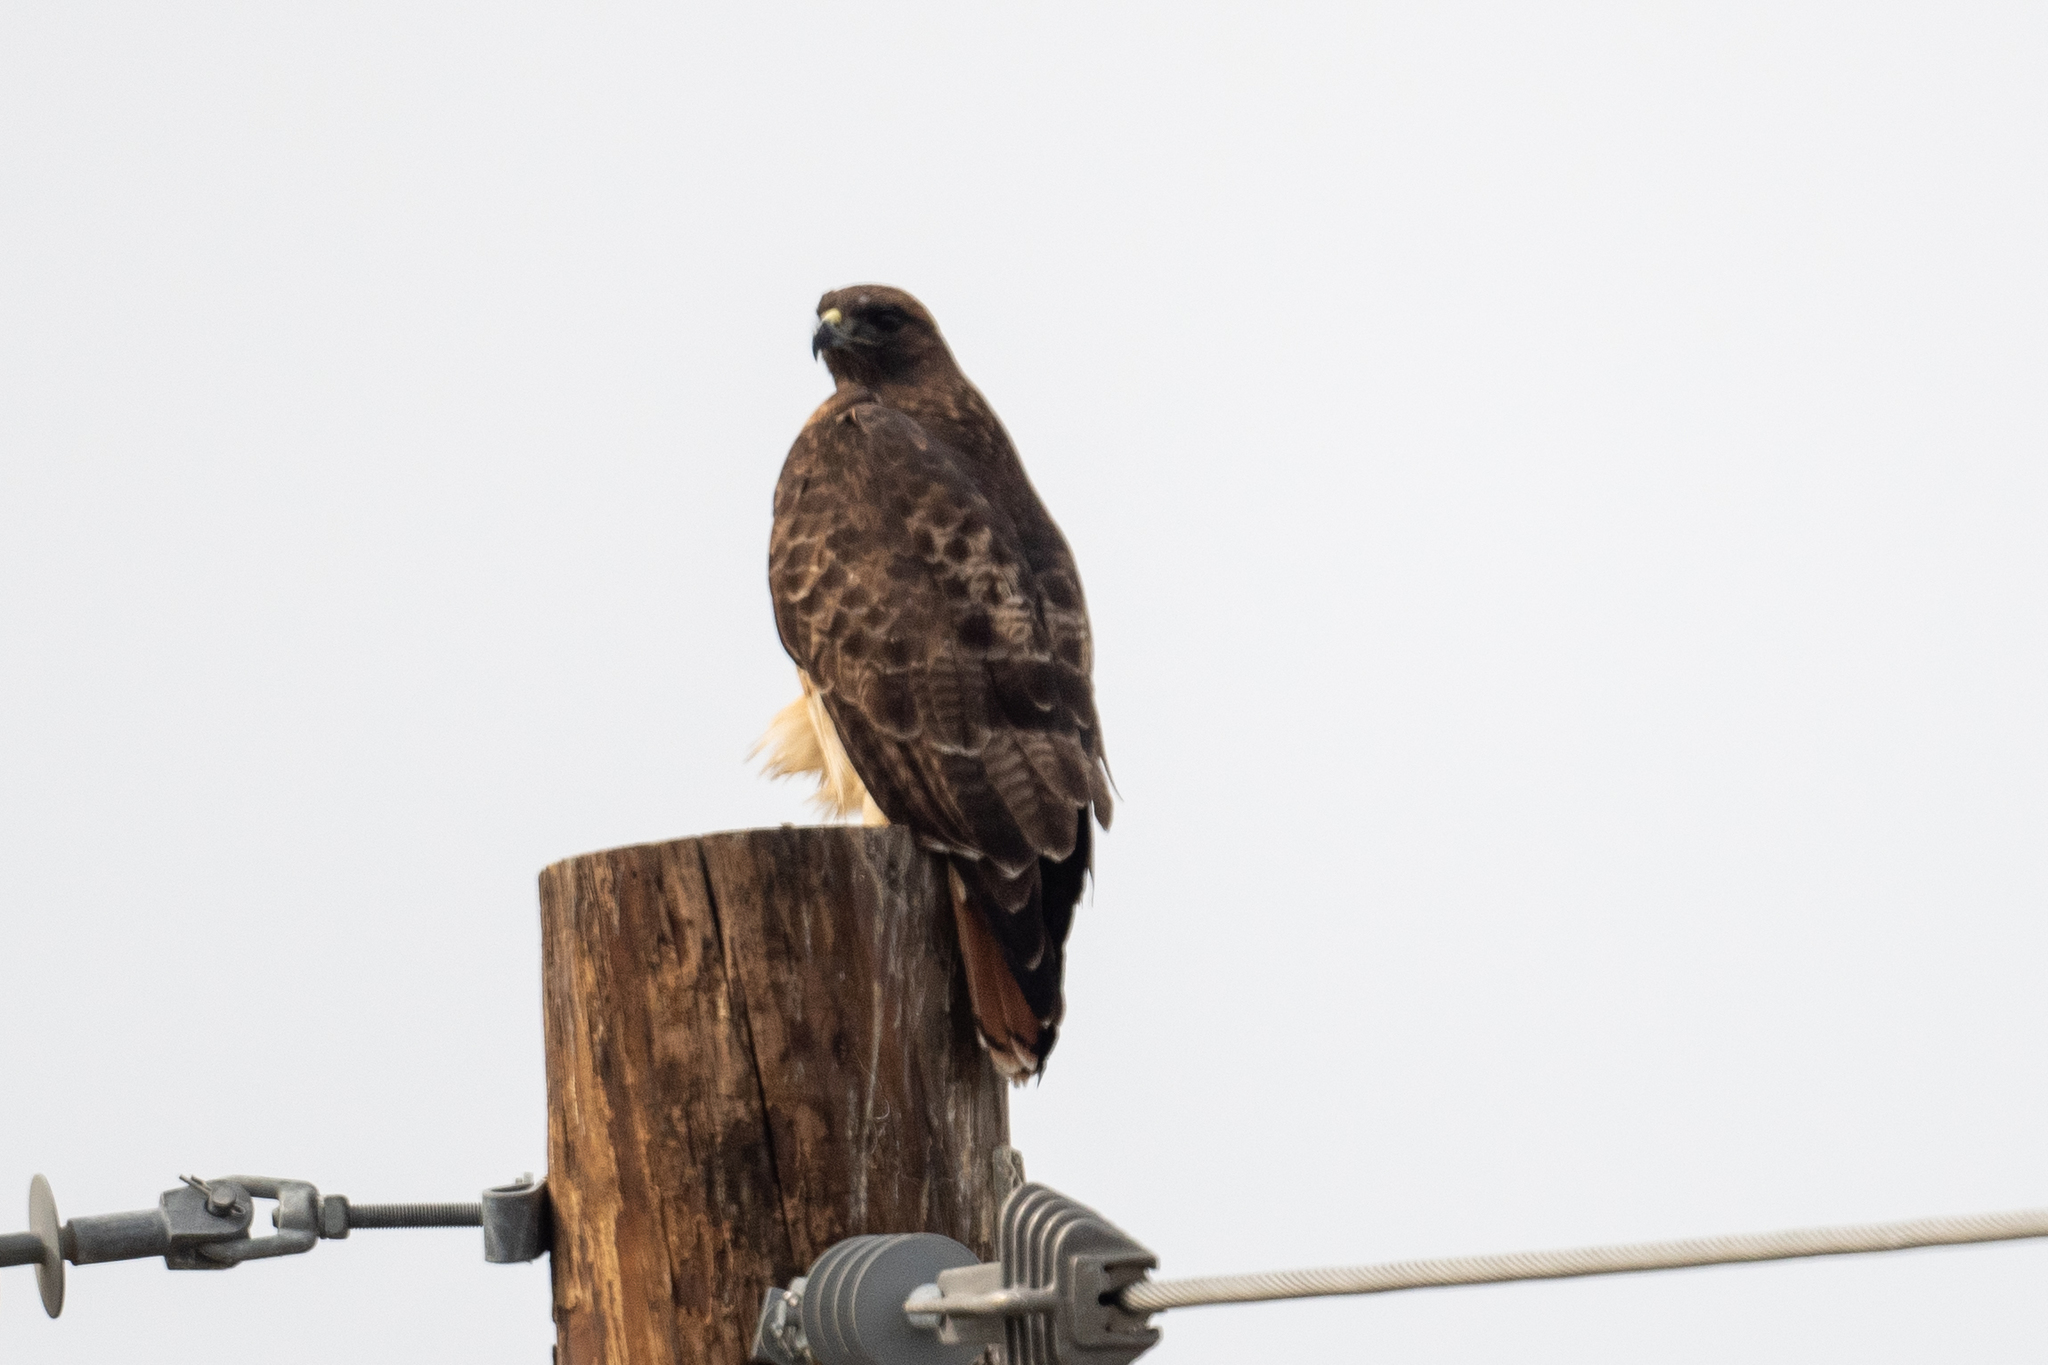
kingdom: Animalia
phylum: Chordata
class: Aves
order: Accipitriformes
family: Accipitridae
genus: Buteo
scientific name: Buteo jamaicensis
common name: Red-tailed hawk
